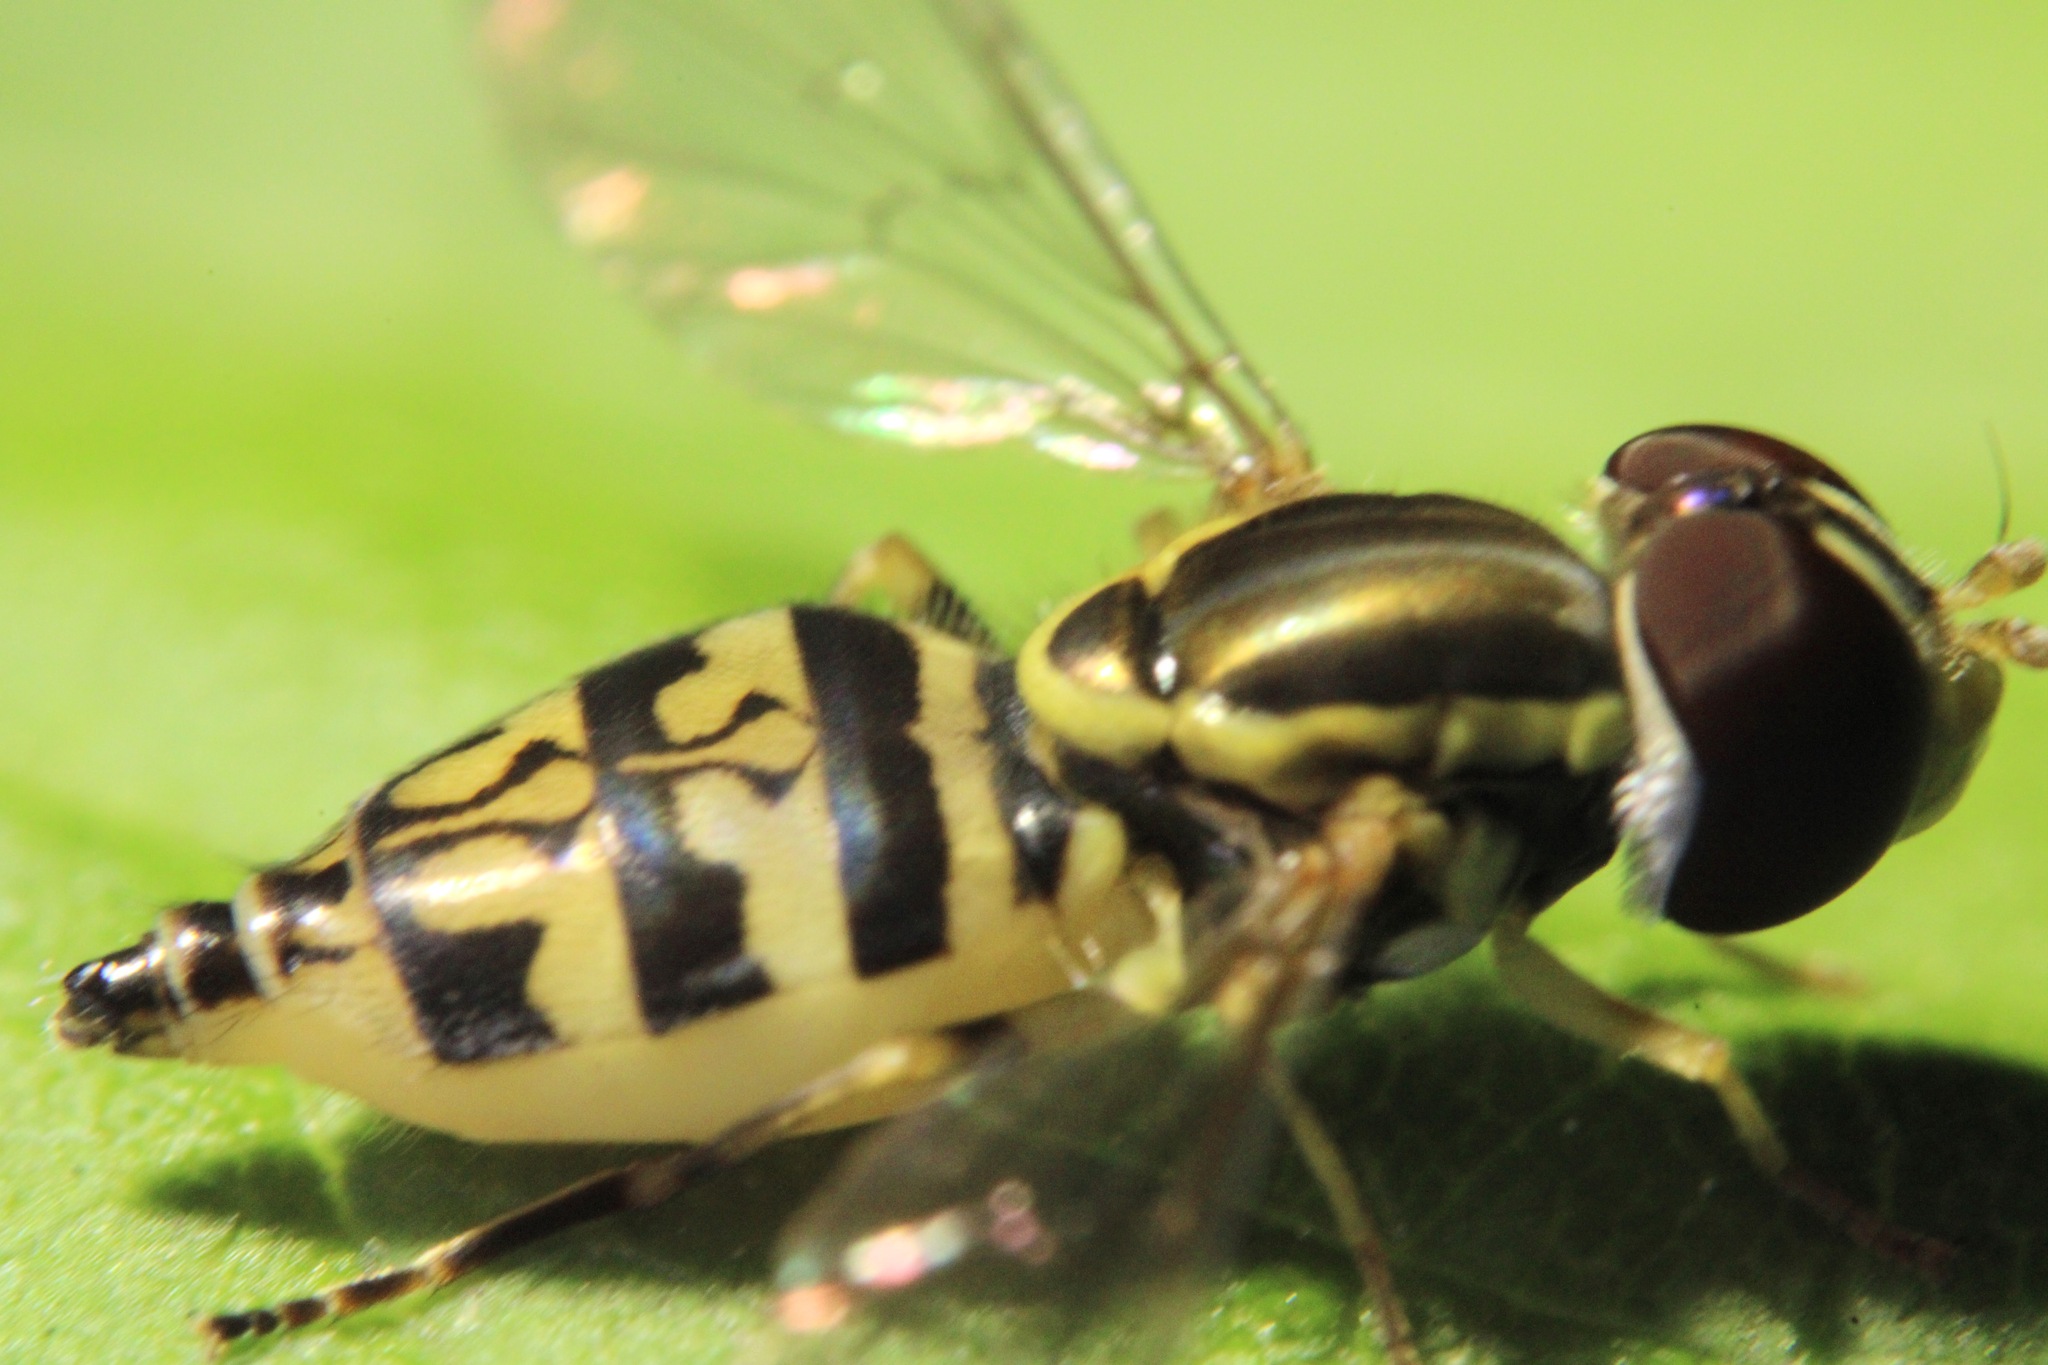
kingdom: Animalia
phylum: Arthropoda
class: Insecta
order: Diptera
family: Syrphidae
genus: Toxomerus
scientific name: Toxomerus geminatus
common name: Eastern calligrapher
